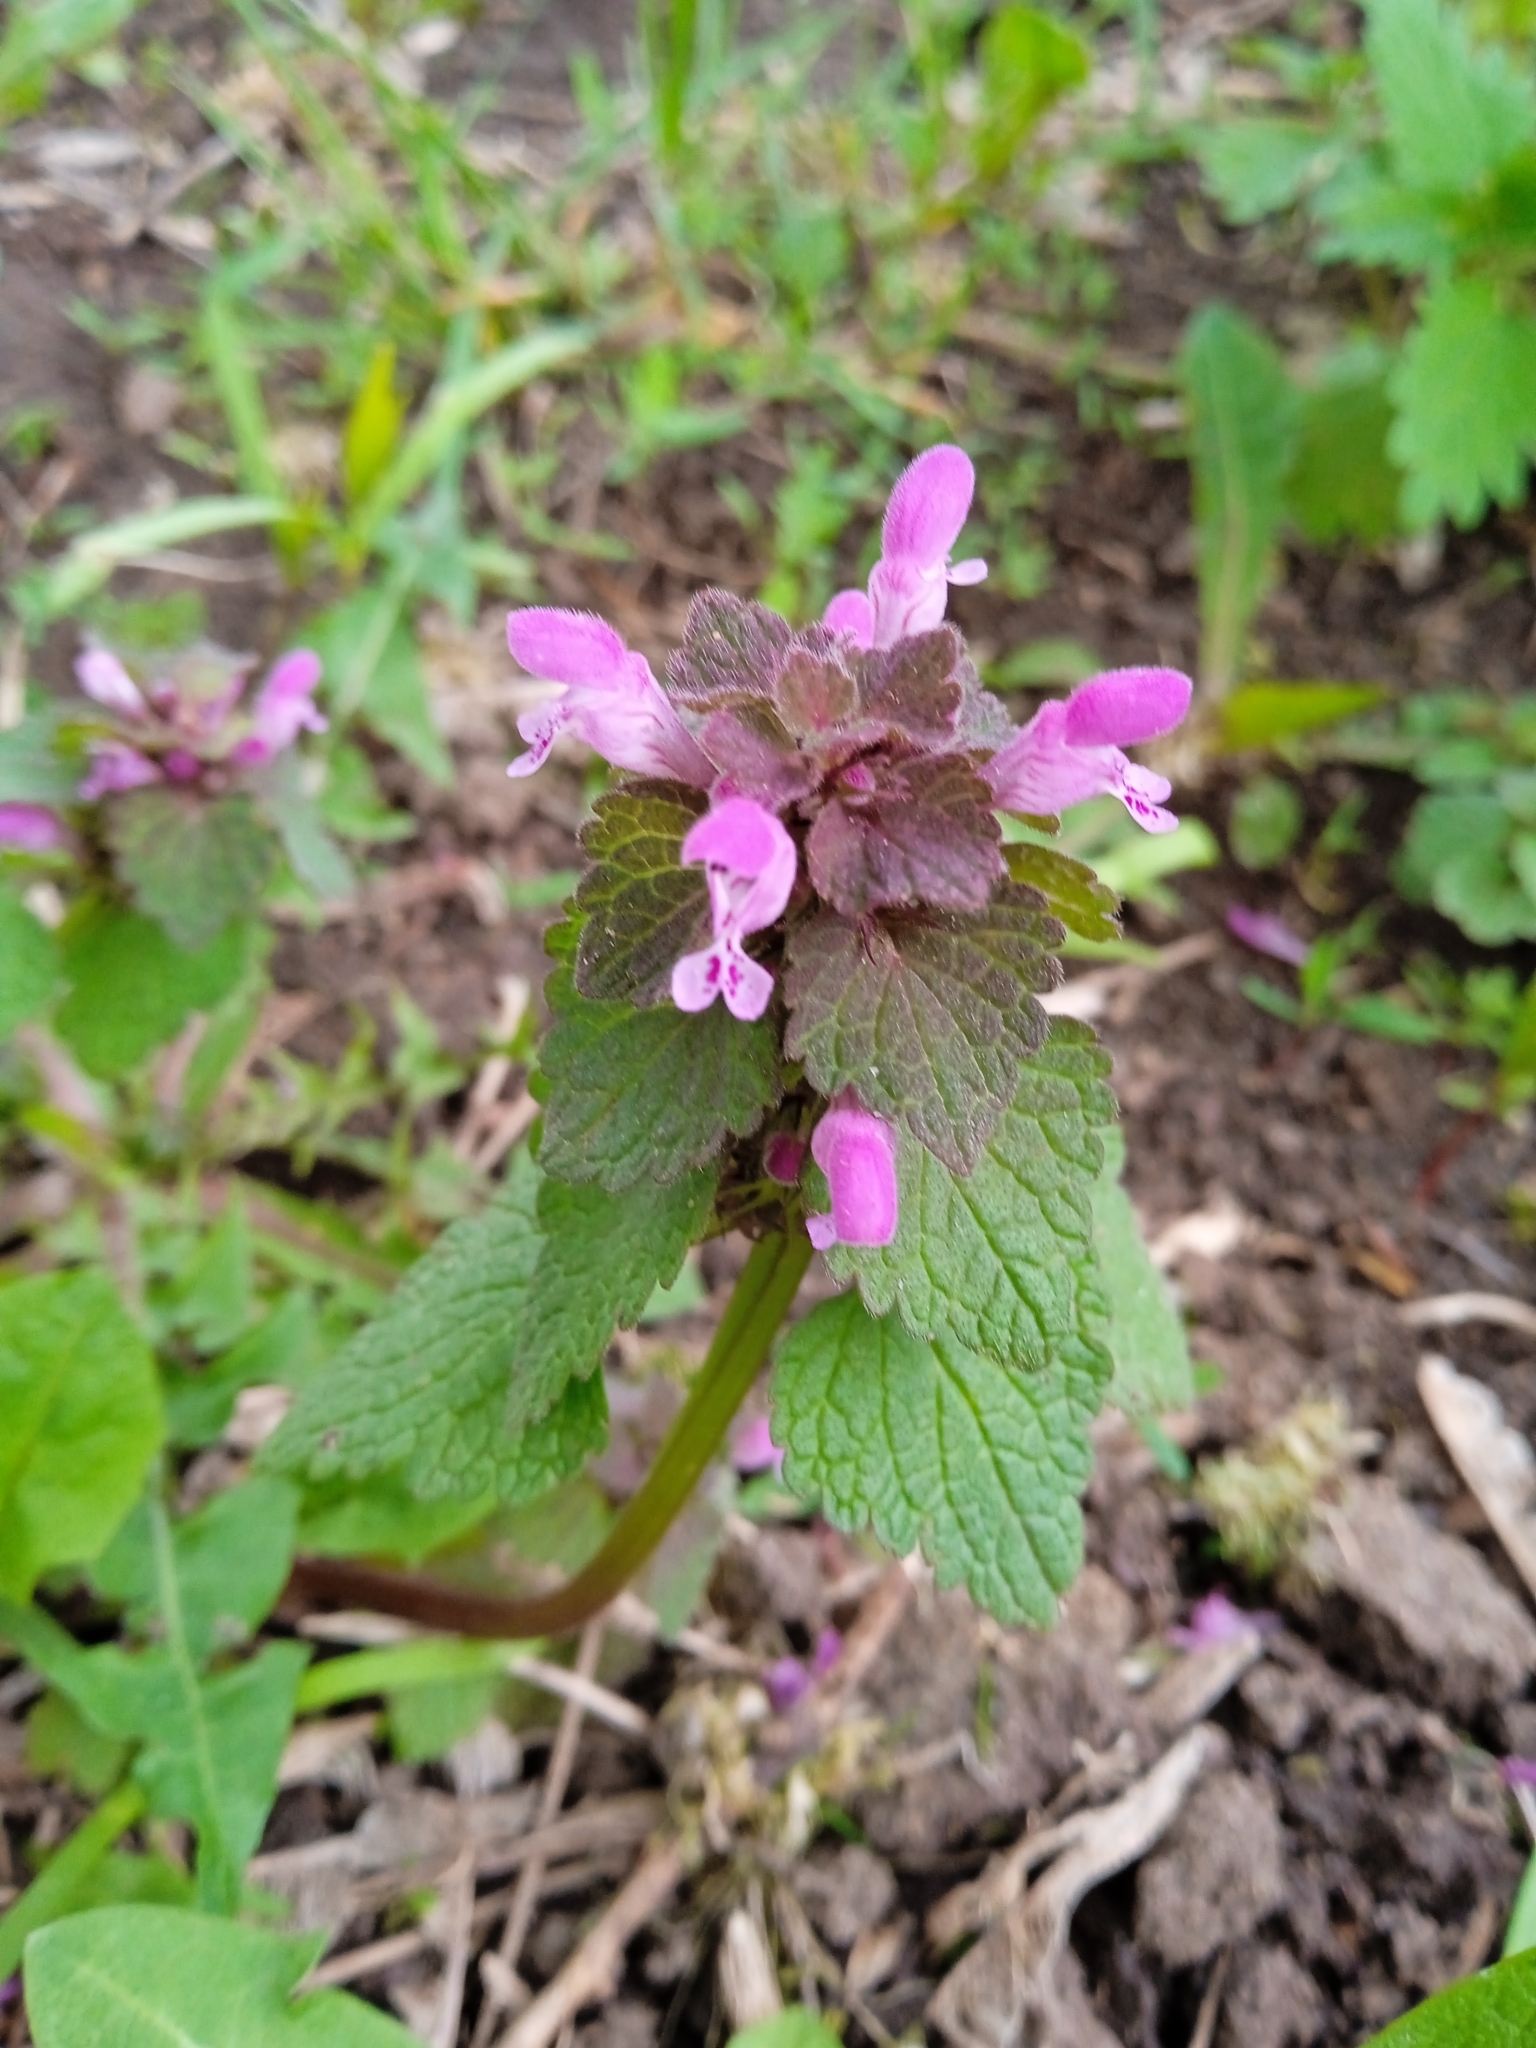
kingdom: Plantae
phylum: Tracheophyta
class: Magnoliopsida
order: Lamiales
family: Lamiaceae
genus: Lamium
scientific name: Lamium purpureum
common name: Red dead-nettle
